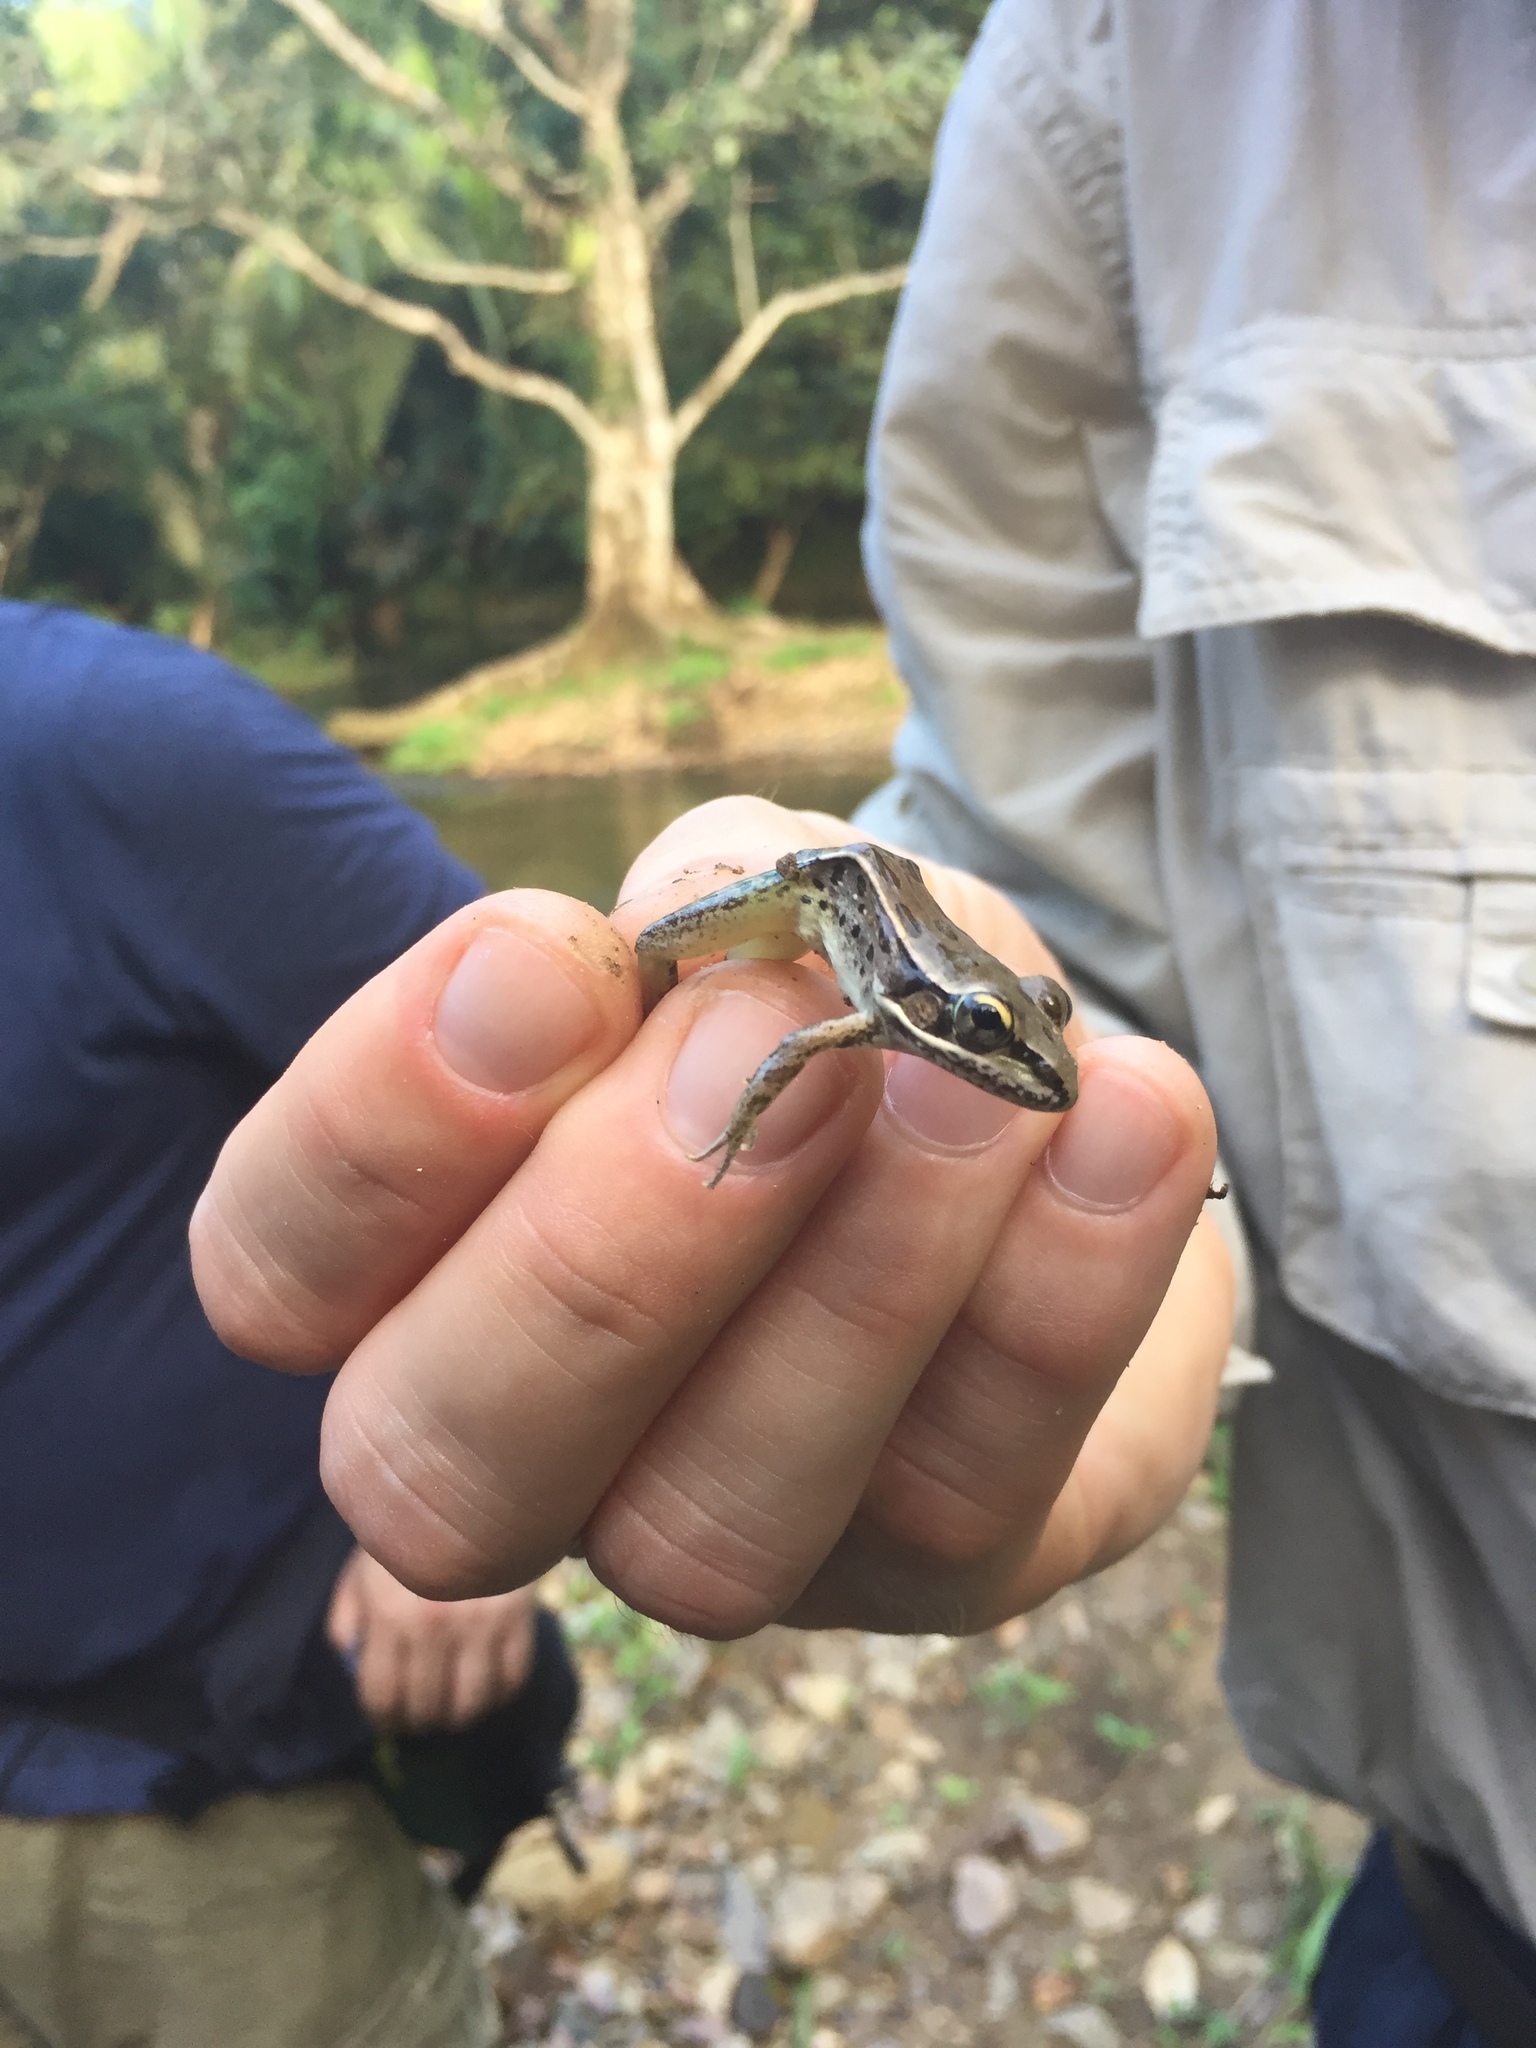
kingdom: Animalia
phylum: Chordata
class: Amphibia
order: Anura
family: Ranidae
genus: Lithobates
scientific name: Lithobates brownorum
